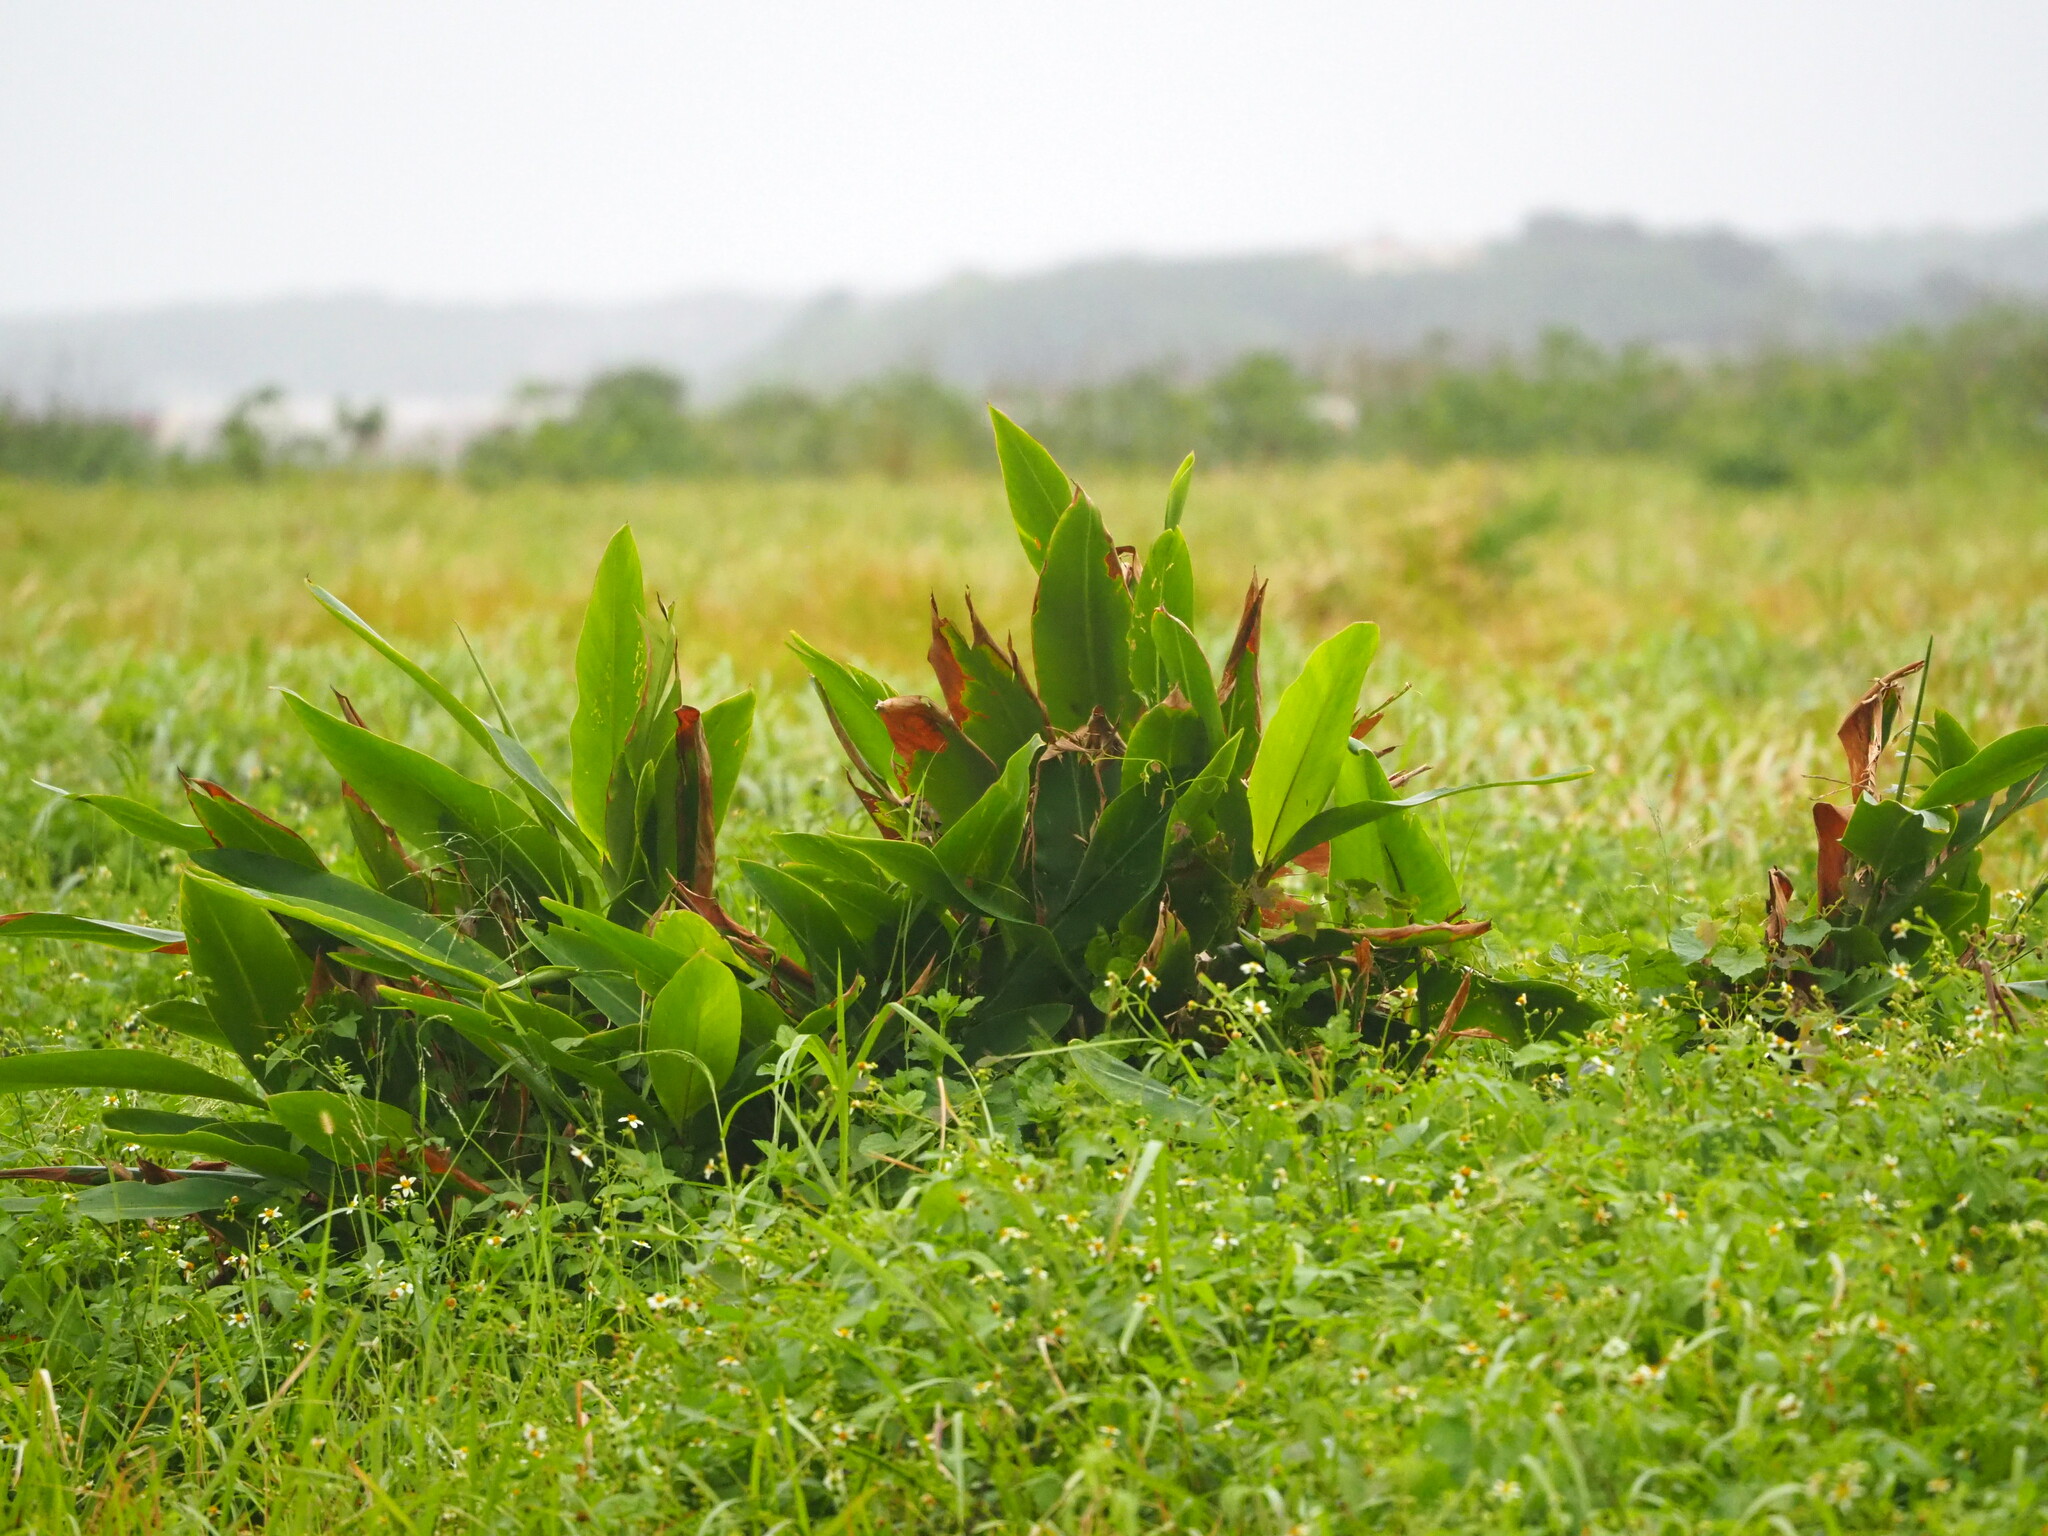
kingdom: Plantae
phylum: Tracheophyta
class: Liliopsida
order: Zingiberales
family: Zingiberaceae
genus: Alpinia
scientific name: Alpinia zerumbet
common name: Shellplant
